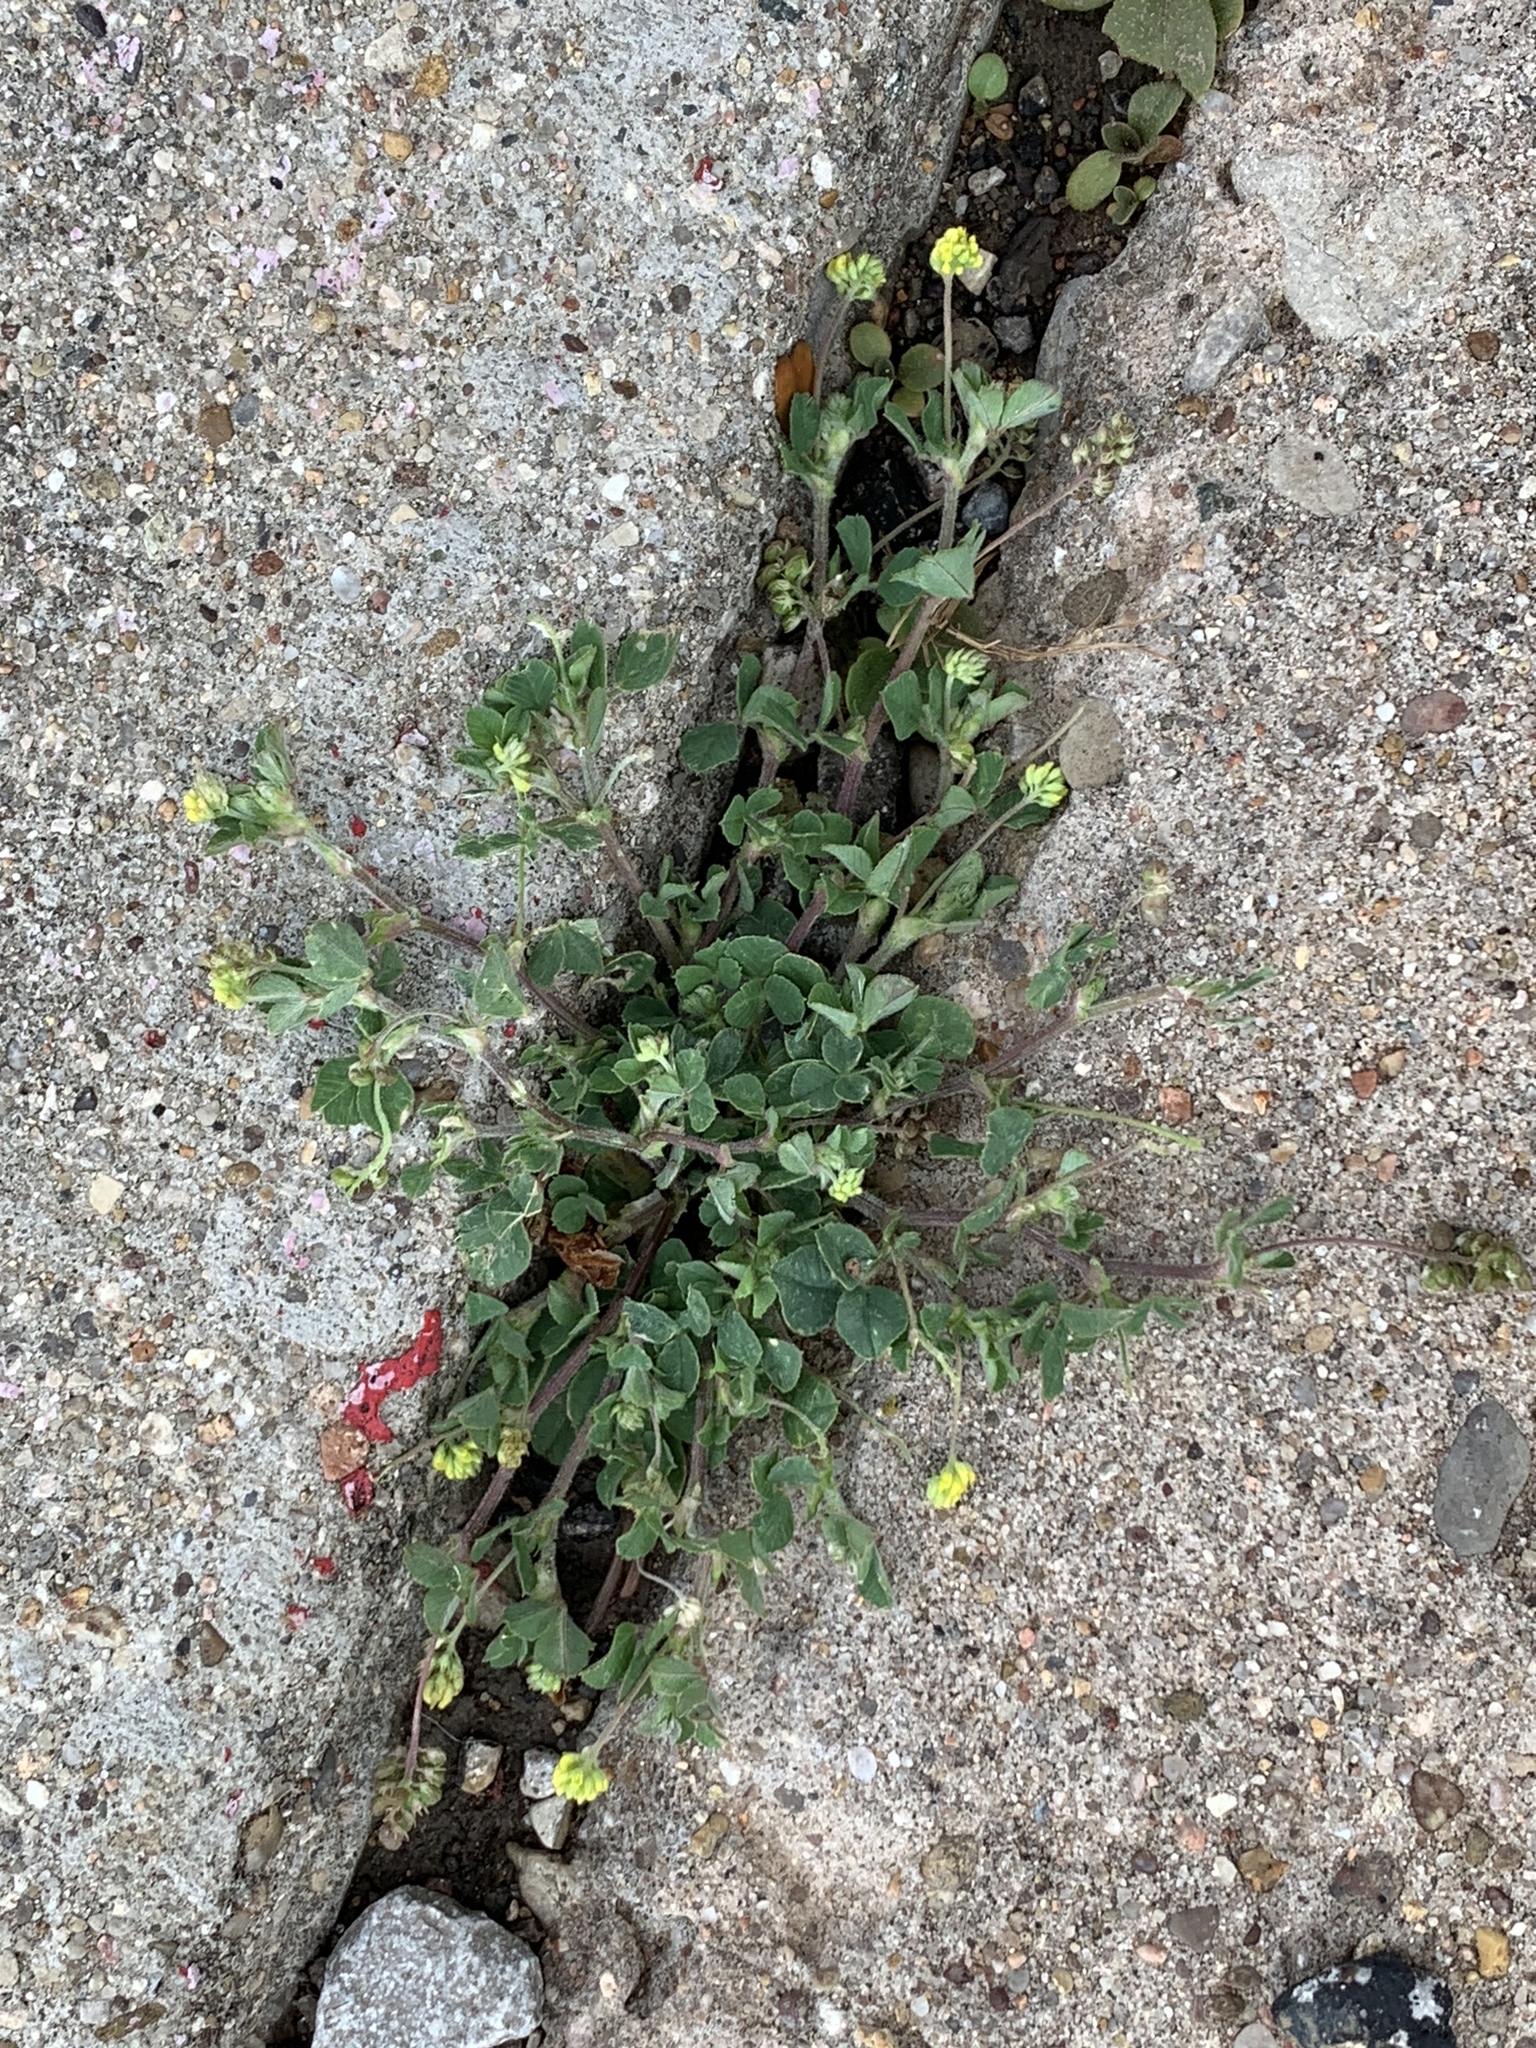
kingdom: Plantae
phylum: Tracheophyta
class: Magnoliopsida
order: Fabales
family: Fabaceae
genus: Medicago
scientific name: Medicago lupulina
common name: Black medick
